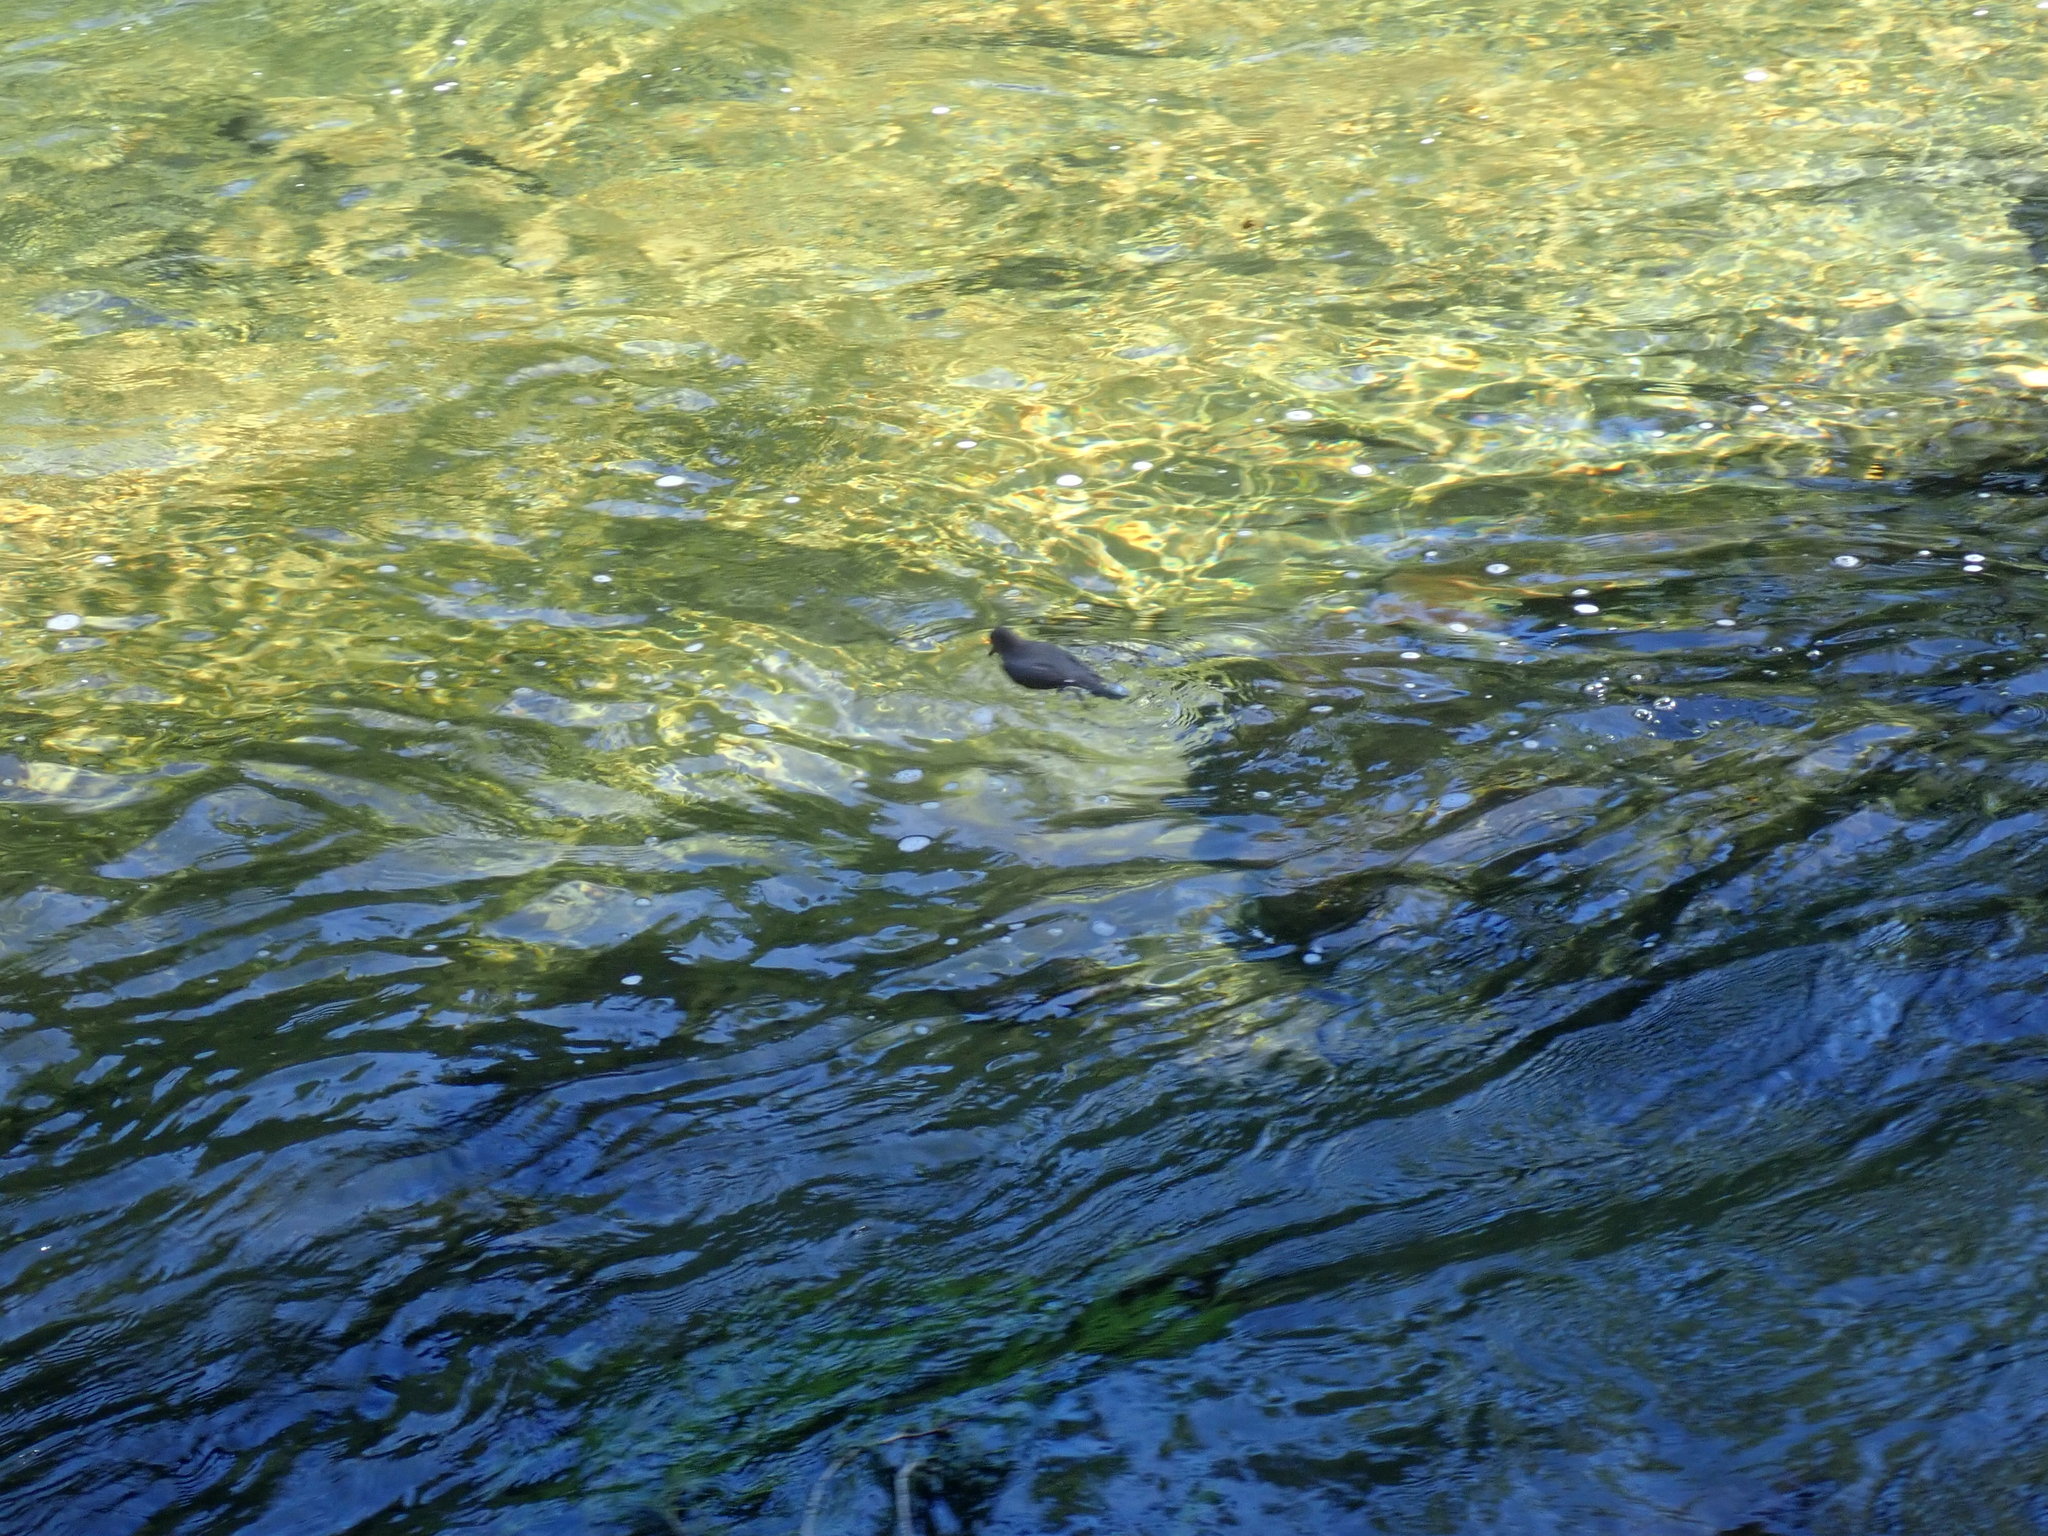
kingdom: Animalia
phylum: Chordata
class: Aves
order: Passeriformes
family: Cinclidae
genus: Cinclus
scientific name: Cinclus mexicanus
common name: American dipper
